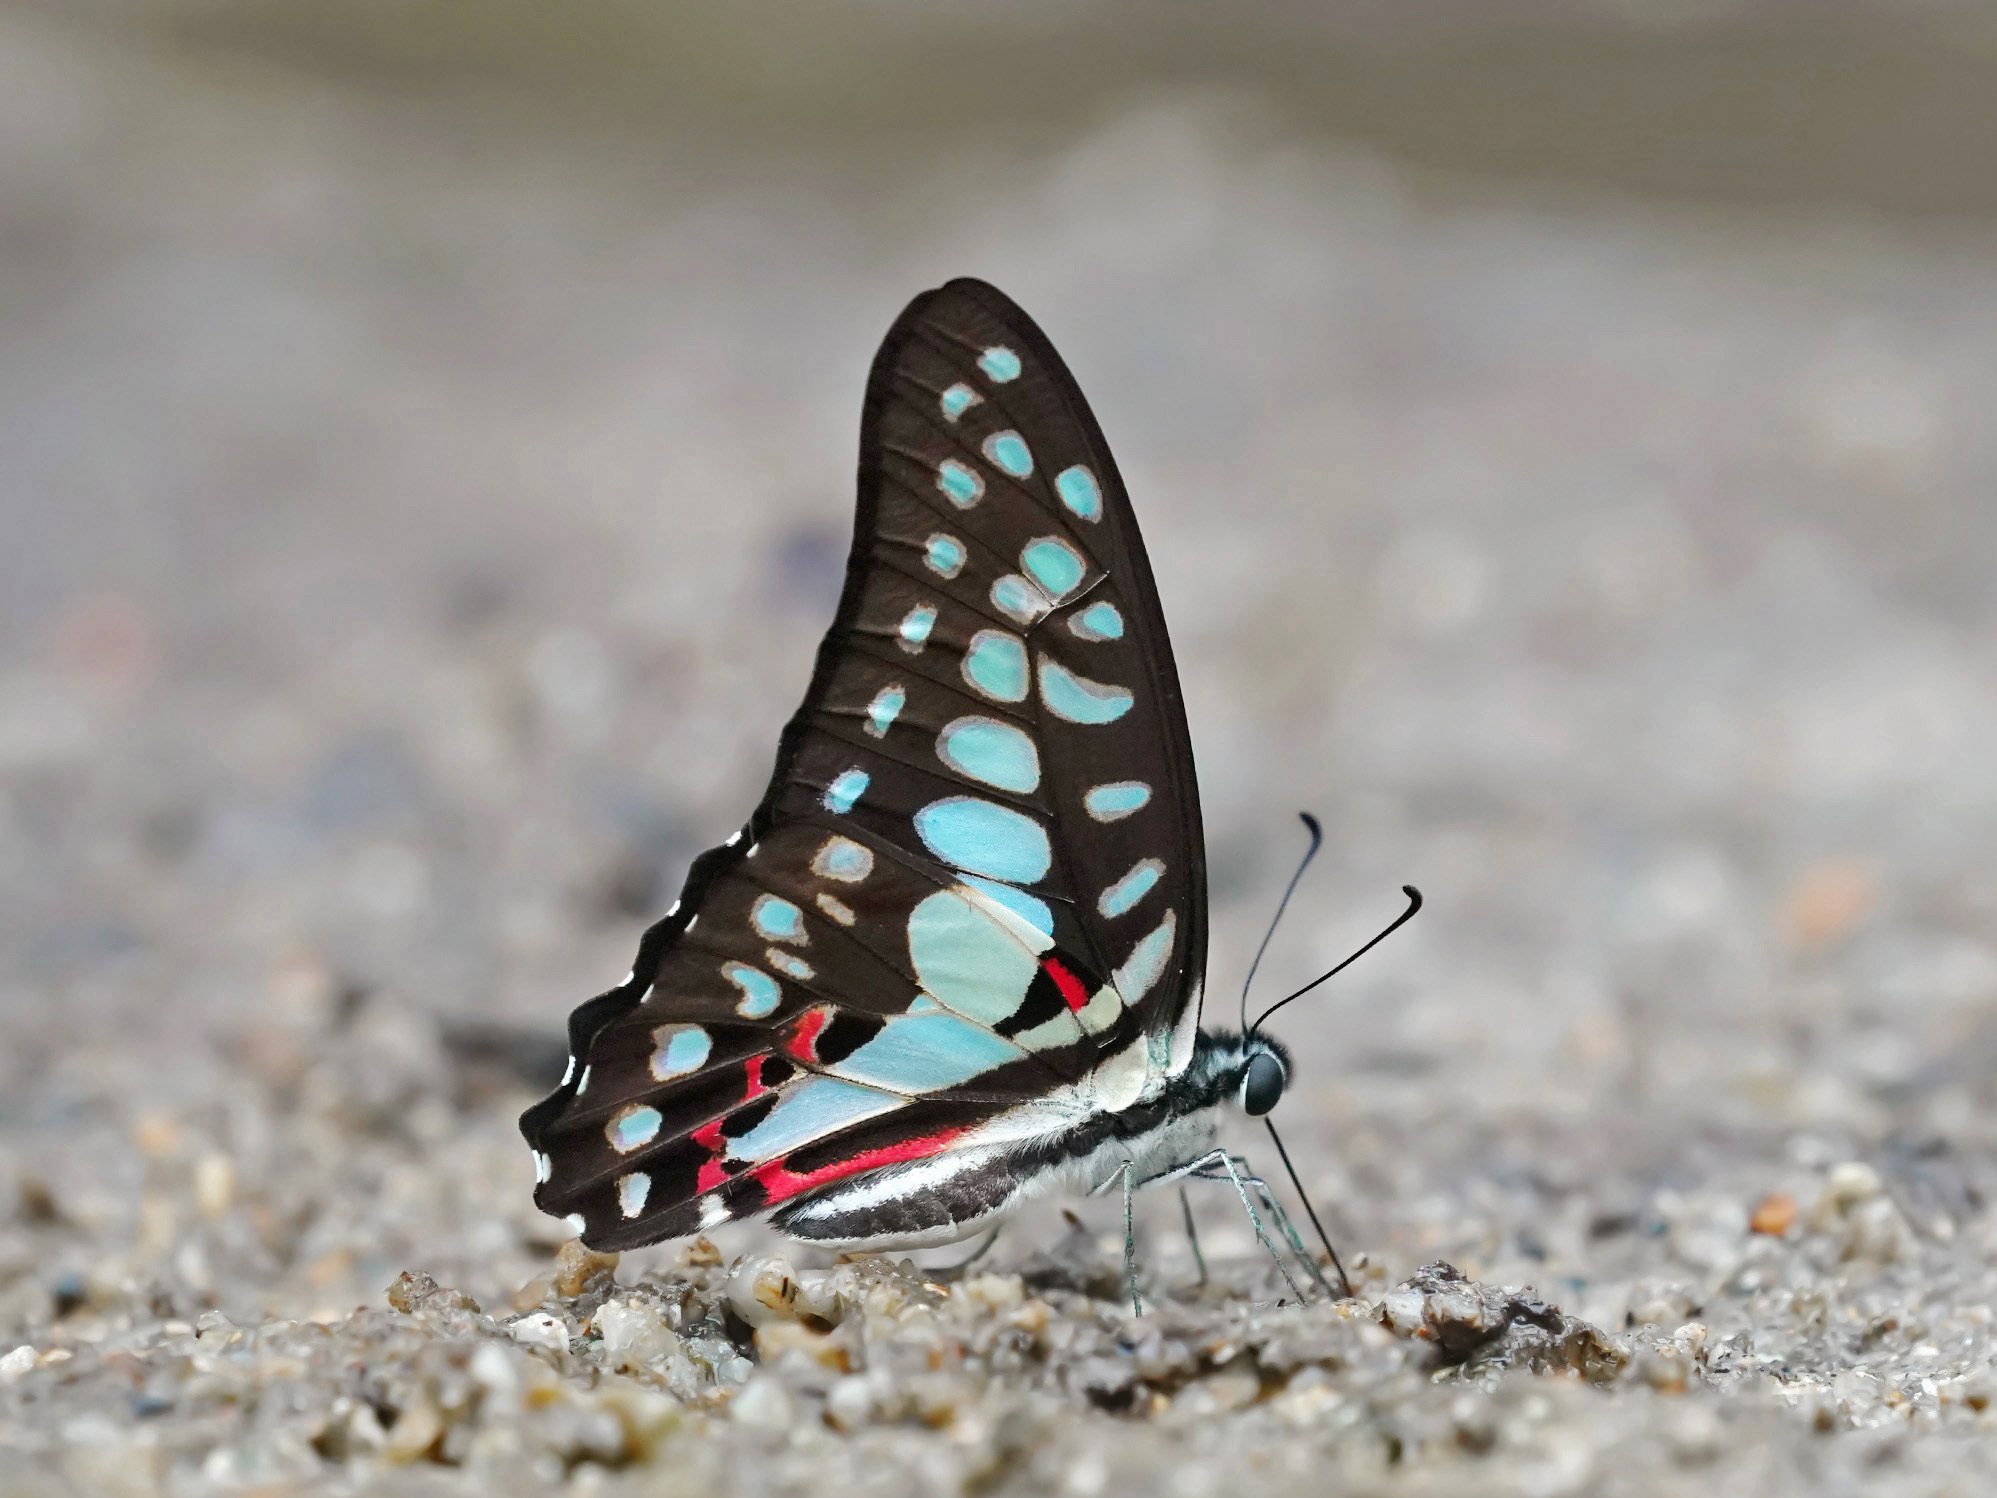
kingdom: Animalia
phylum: Arthropoda
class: Insecta
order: Lepidoptera
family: Papilionidae
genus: Graphium
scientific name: Graphium doson
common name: Common jay
